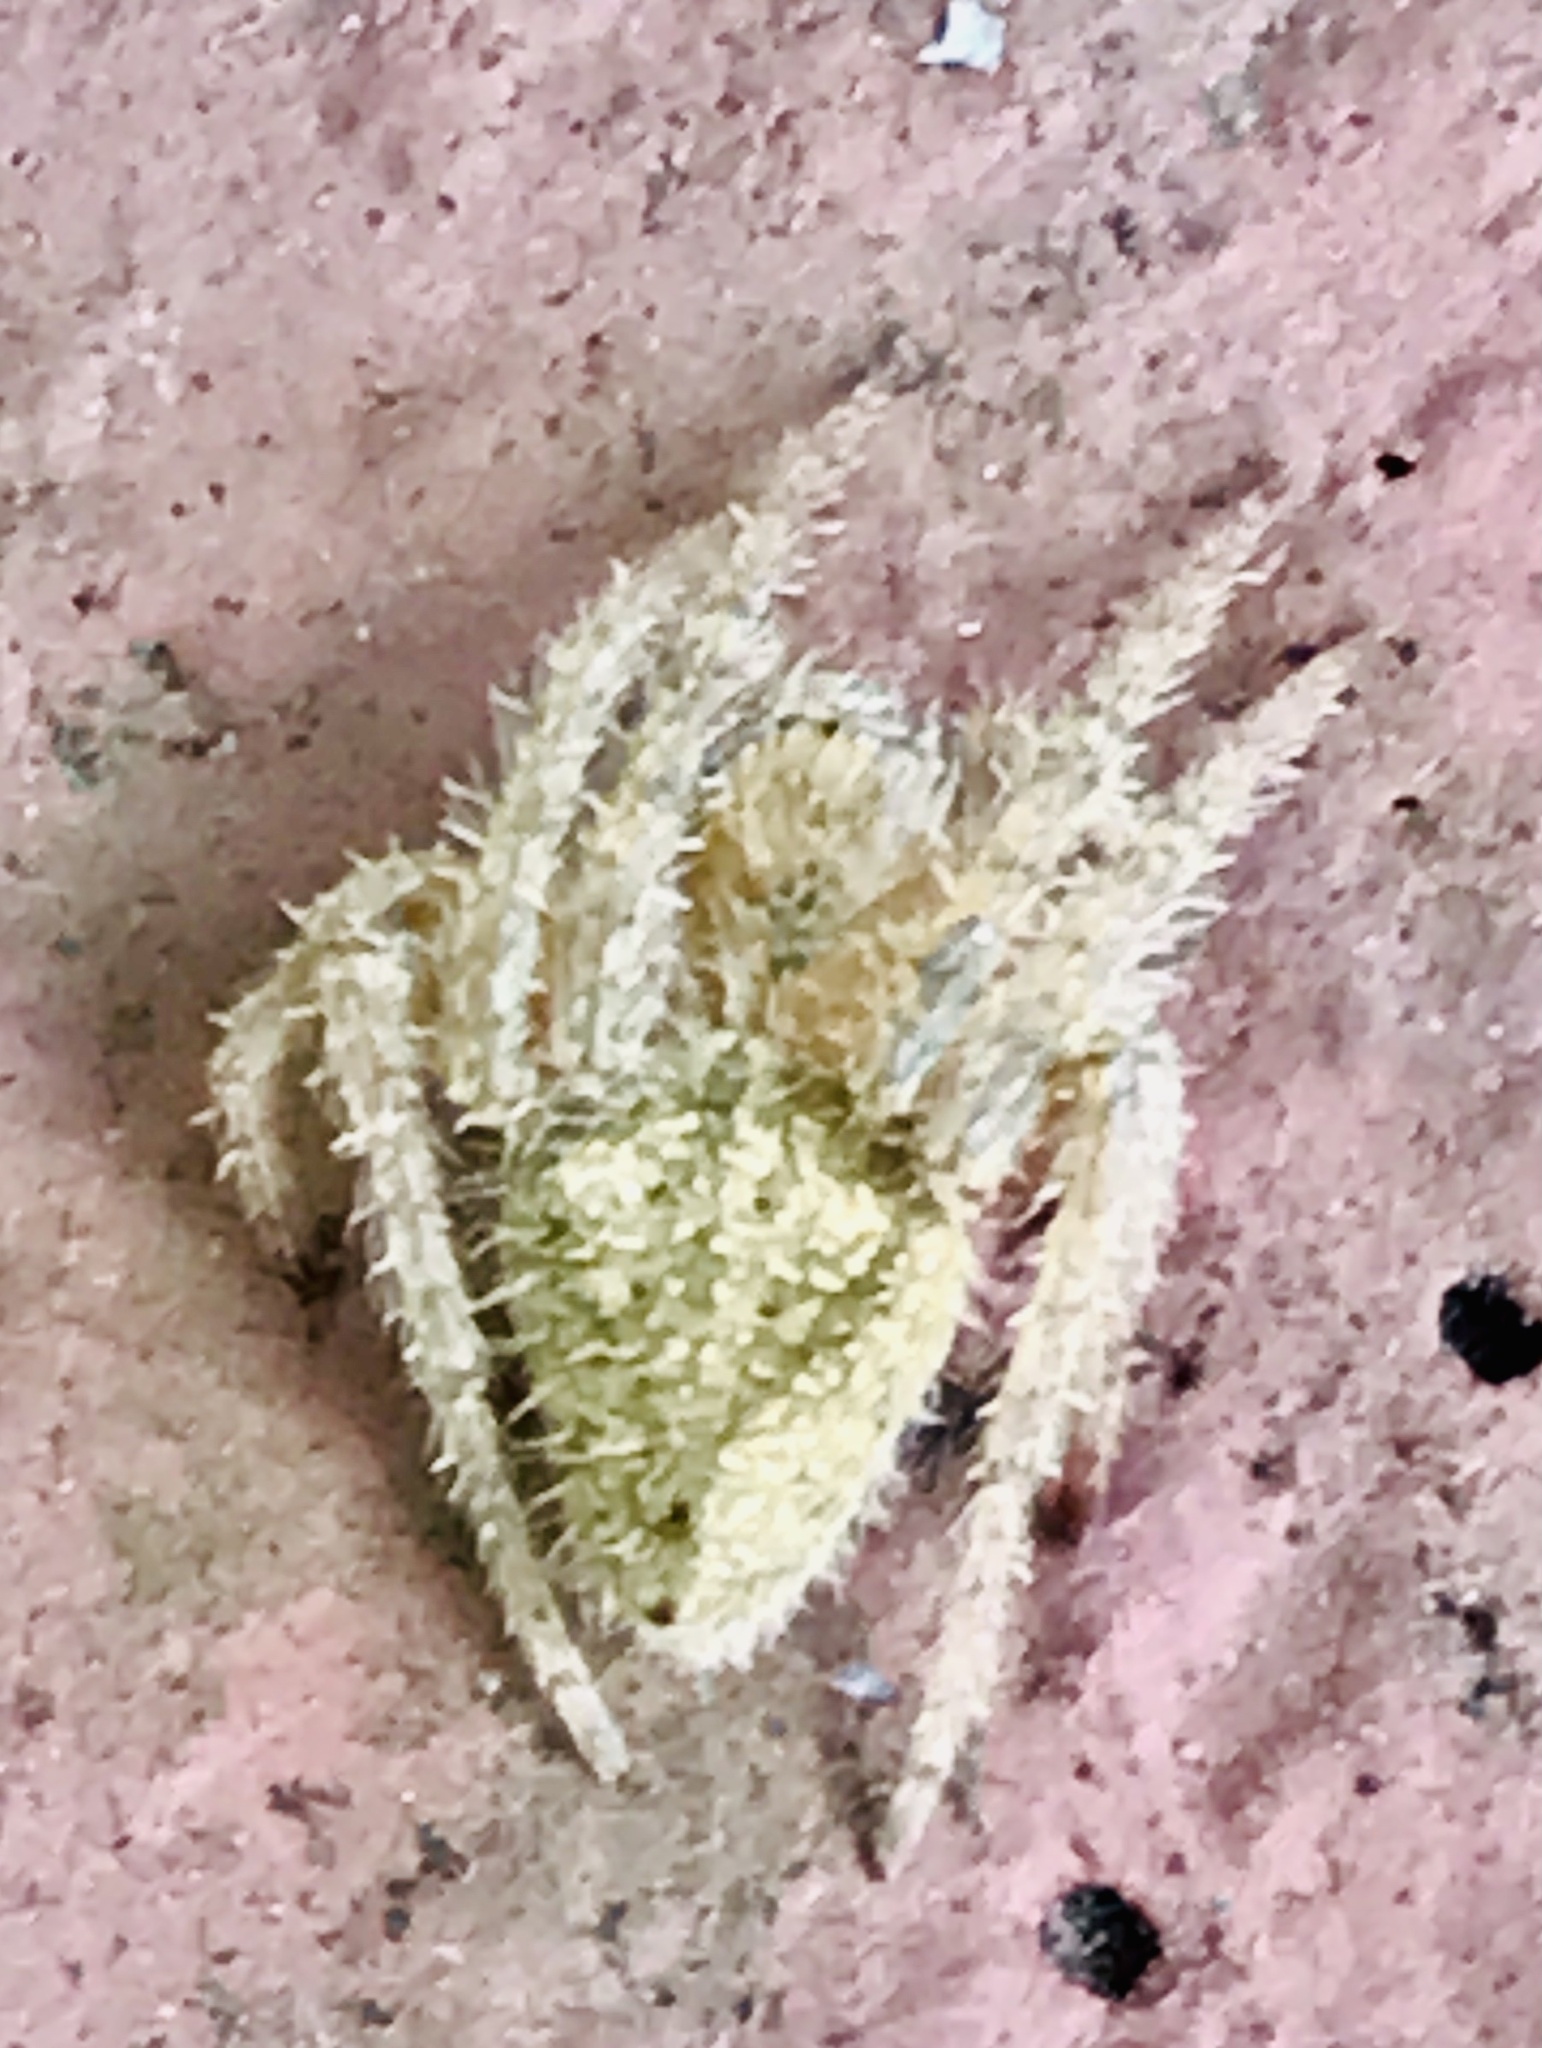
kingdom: Animalia
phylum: Arthropoda
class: Arachnida
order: Araneae
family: Araneidae
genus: Eriophora
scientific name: Eriophora edax
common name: Orb weavers
